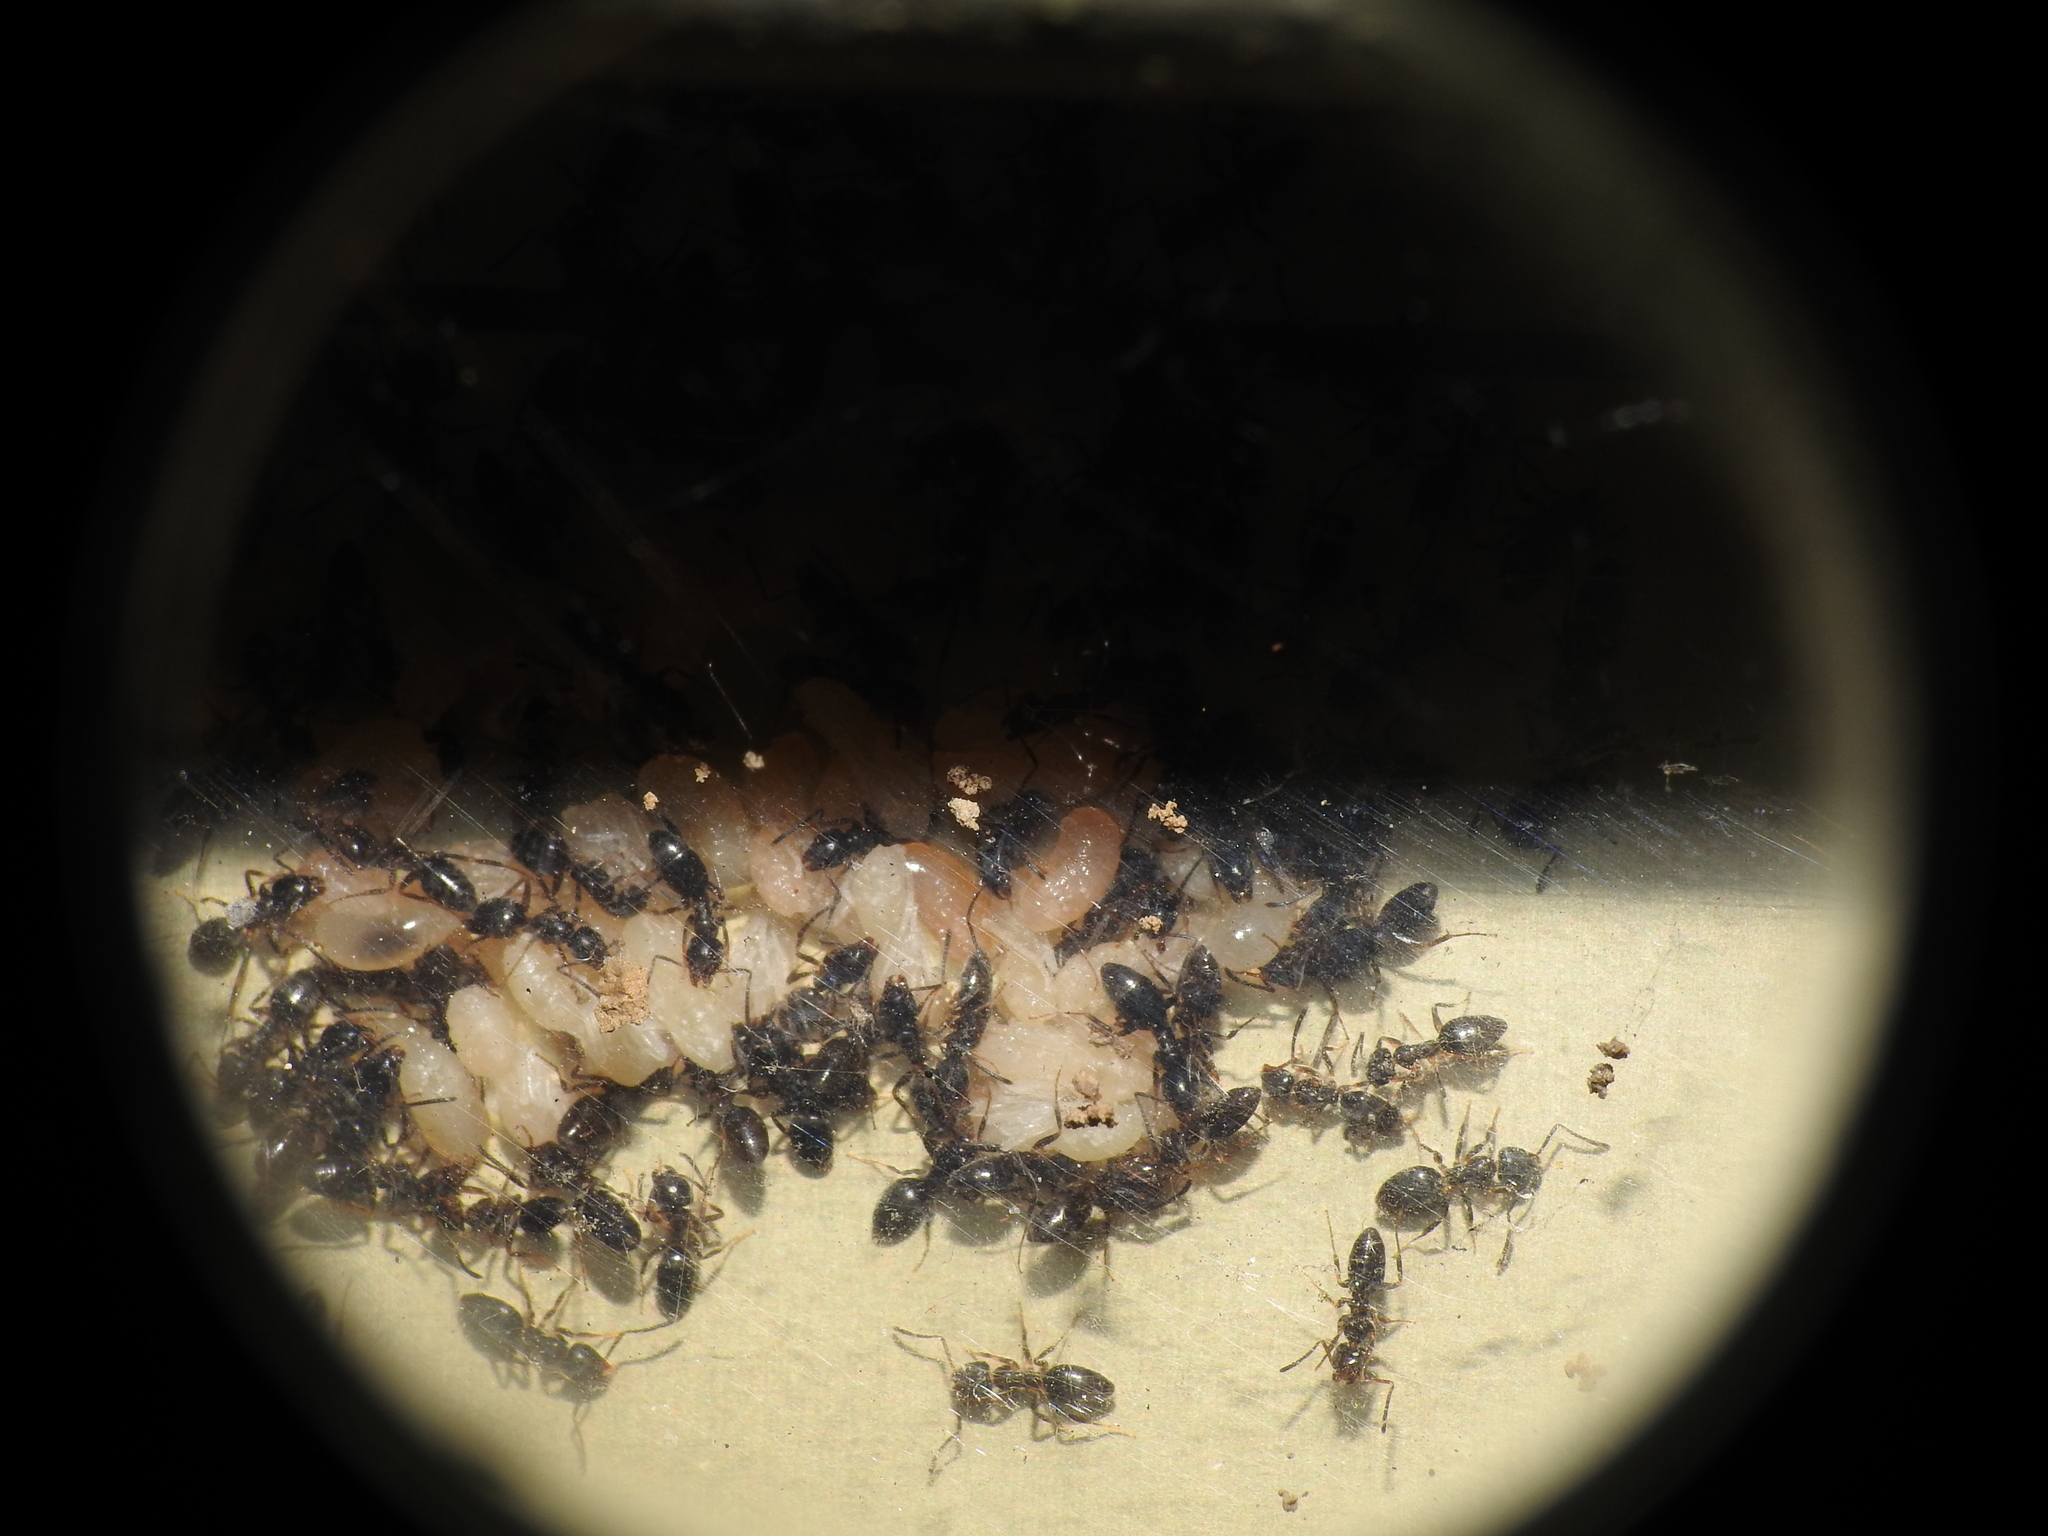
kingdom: Animalia
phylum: Arthropoda
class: Insecta
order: Hymenoptera
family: Formicidae
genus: Tapinoma
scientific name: Tapinoma sessile
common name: Odorous house ant
